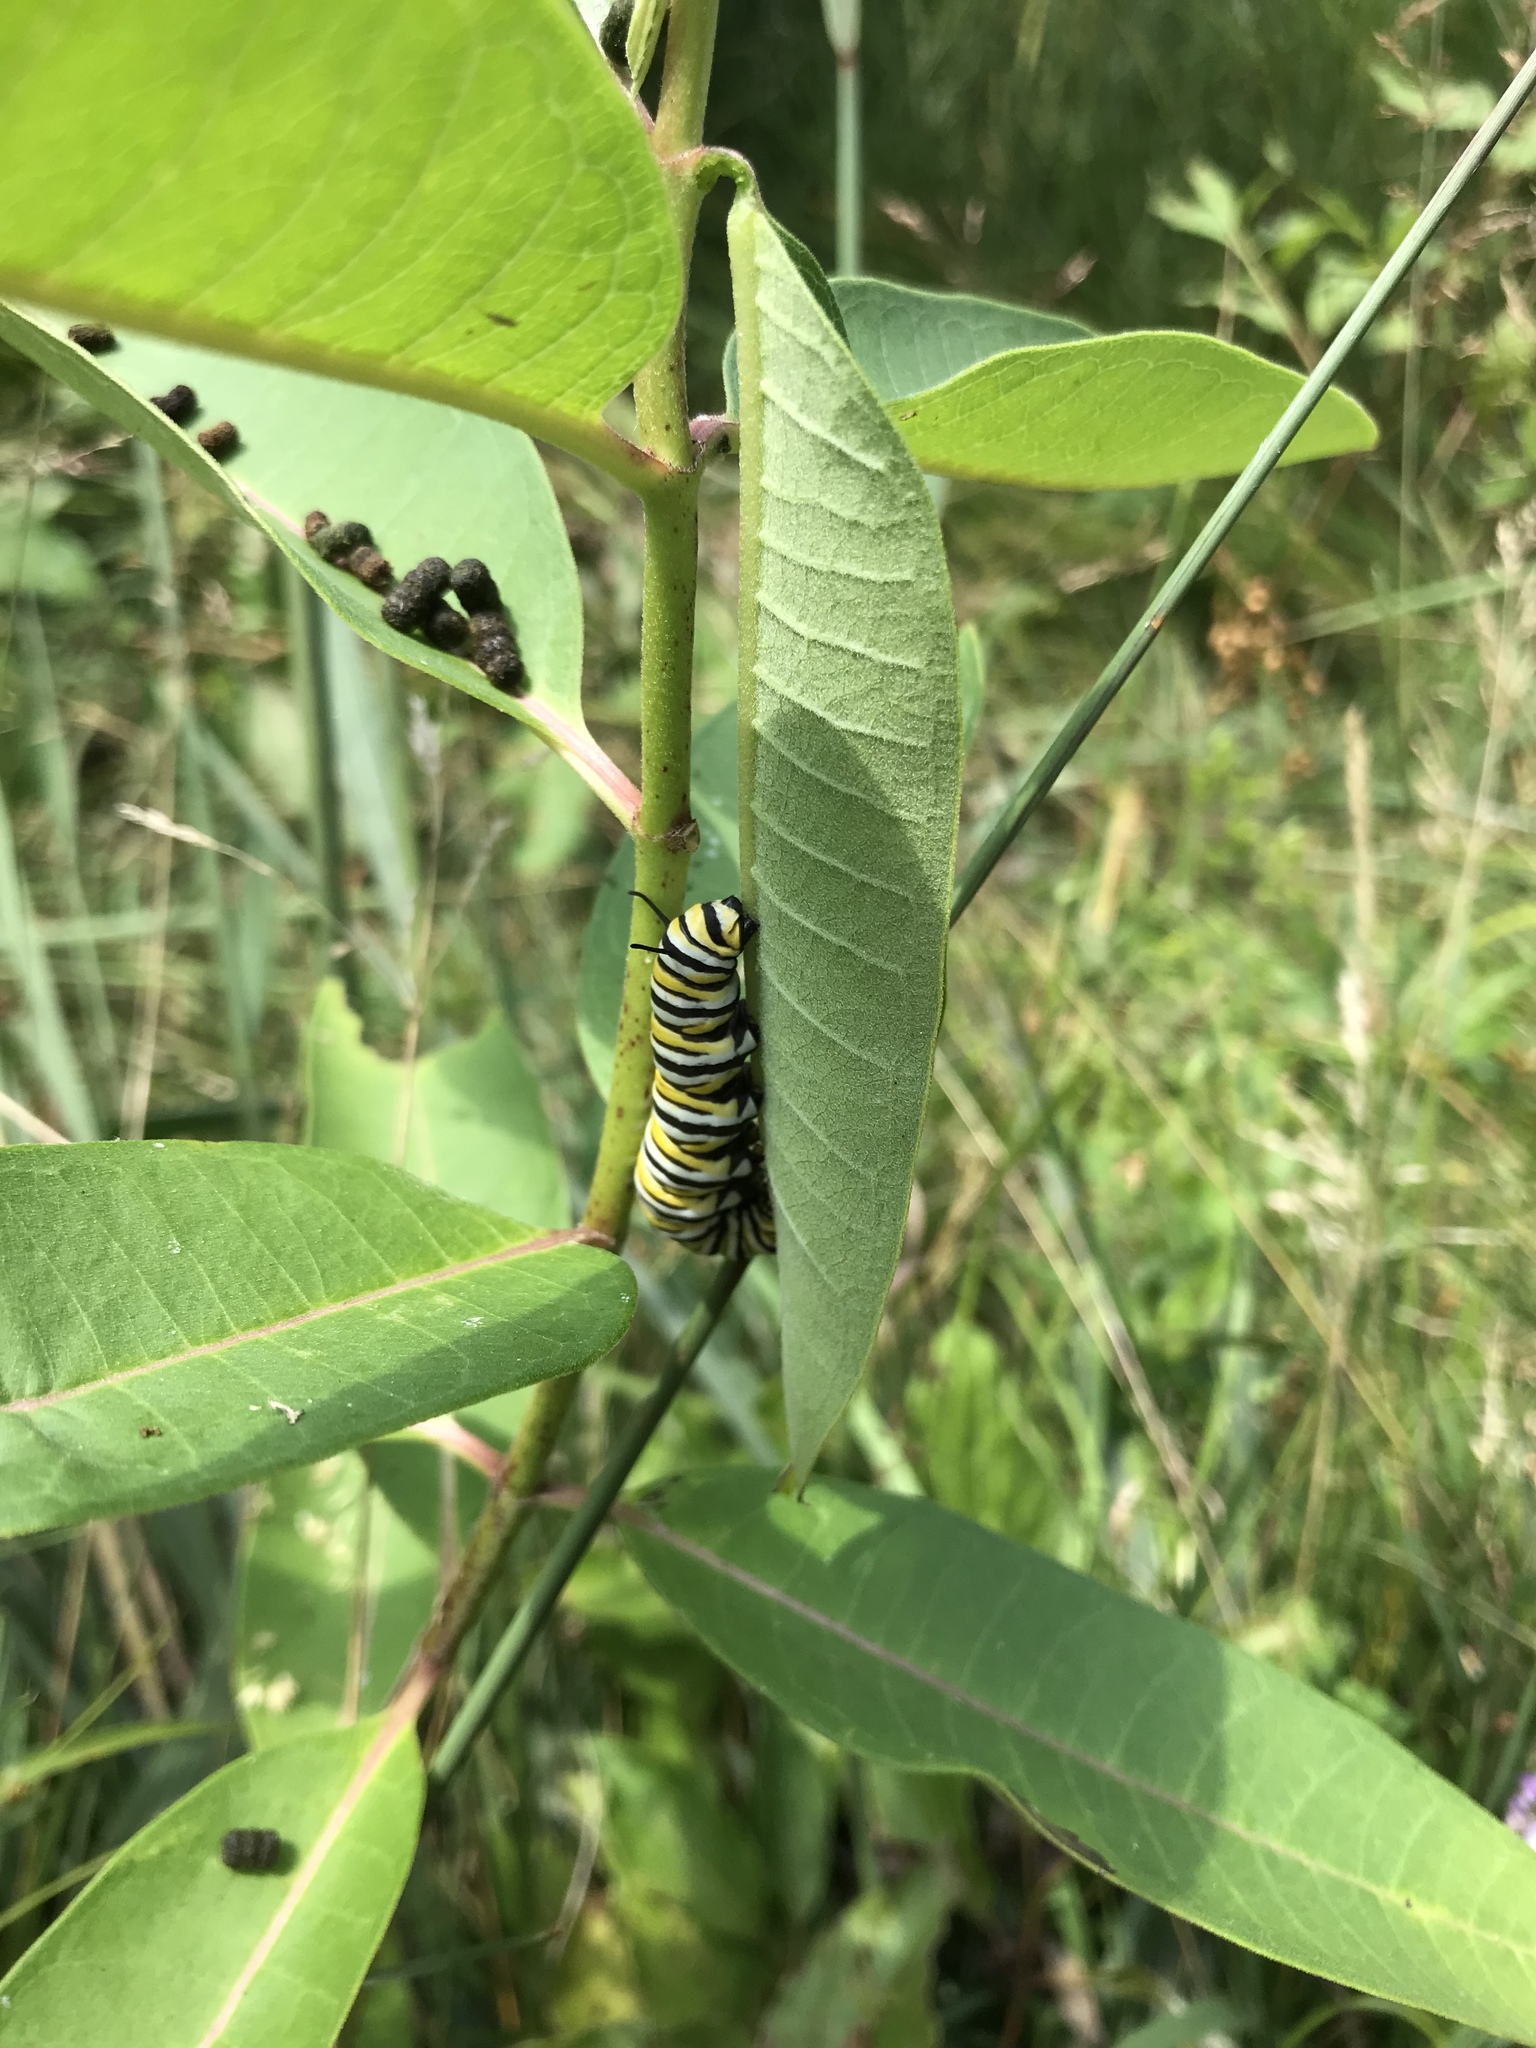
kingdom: Animalia
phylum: Arthropoda
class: Insecta
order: Lepidoptera
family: Nymphalidae
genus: Danaus
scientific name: Danaus plexippus
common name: Monarch
